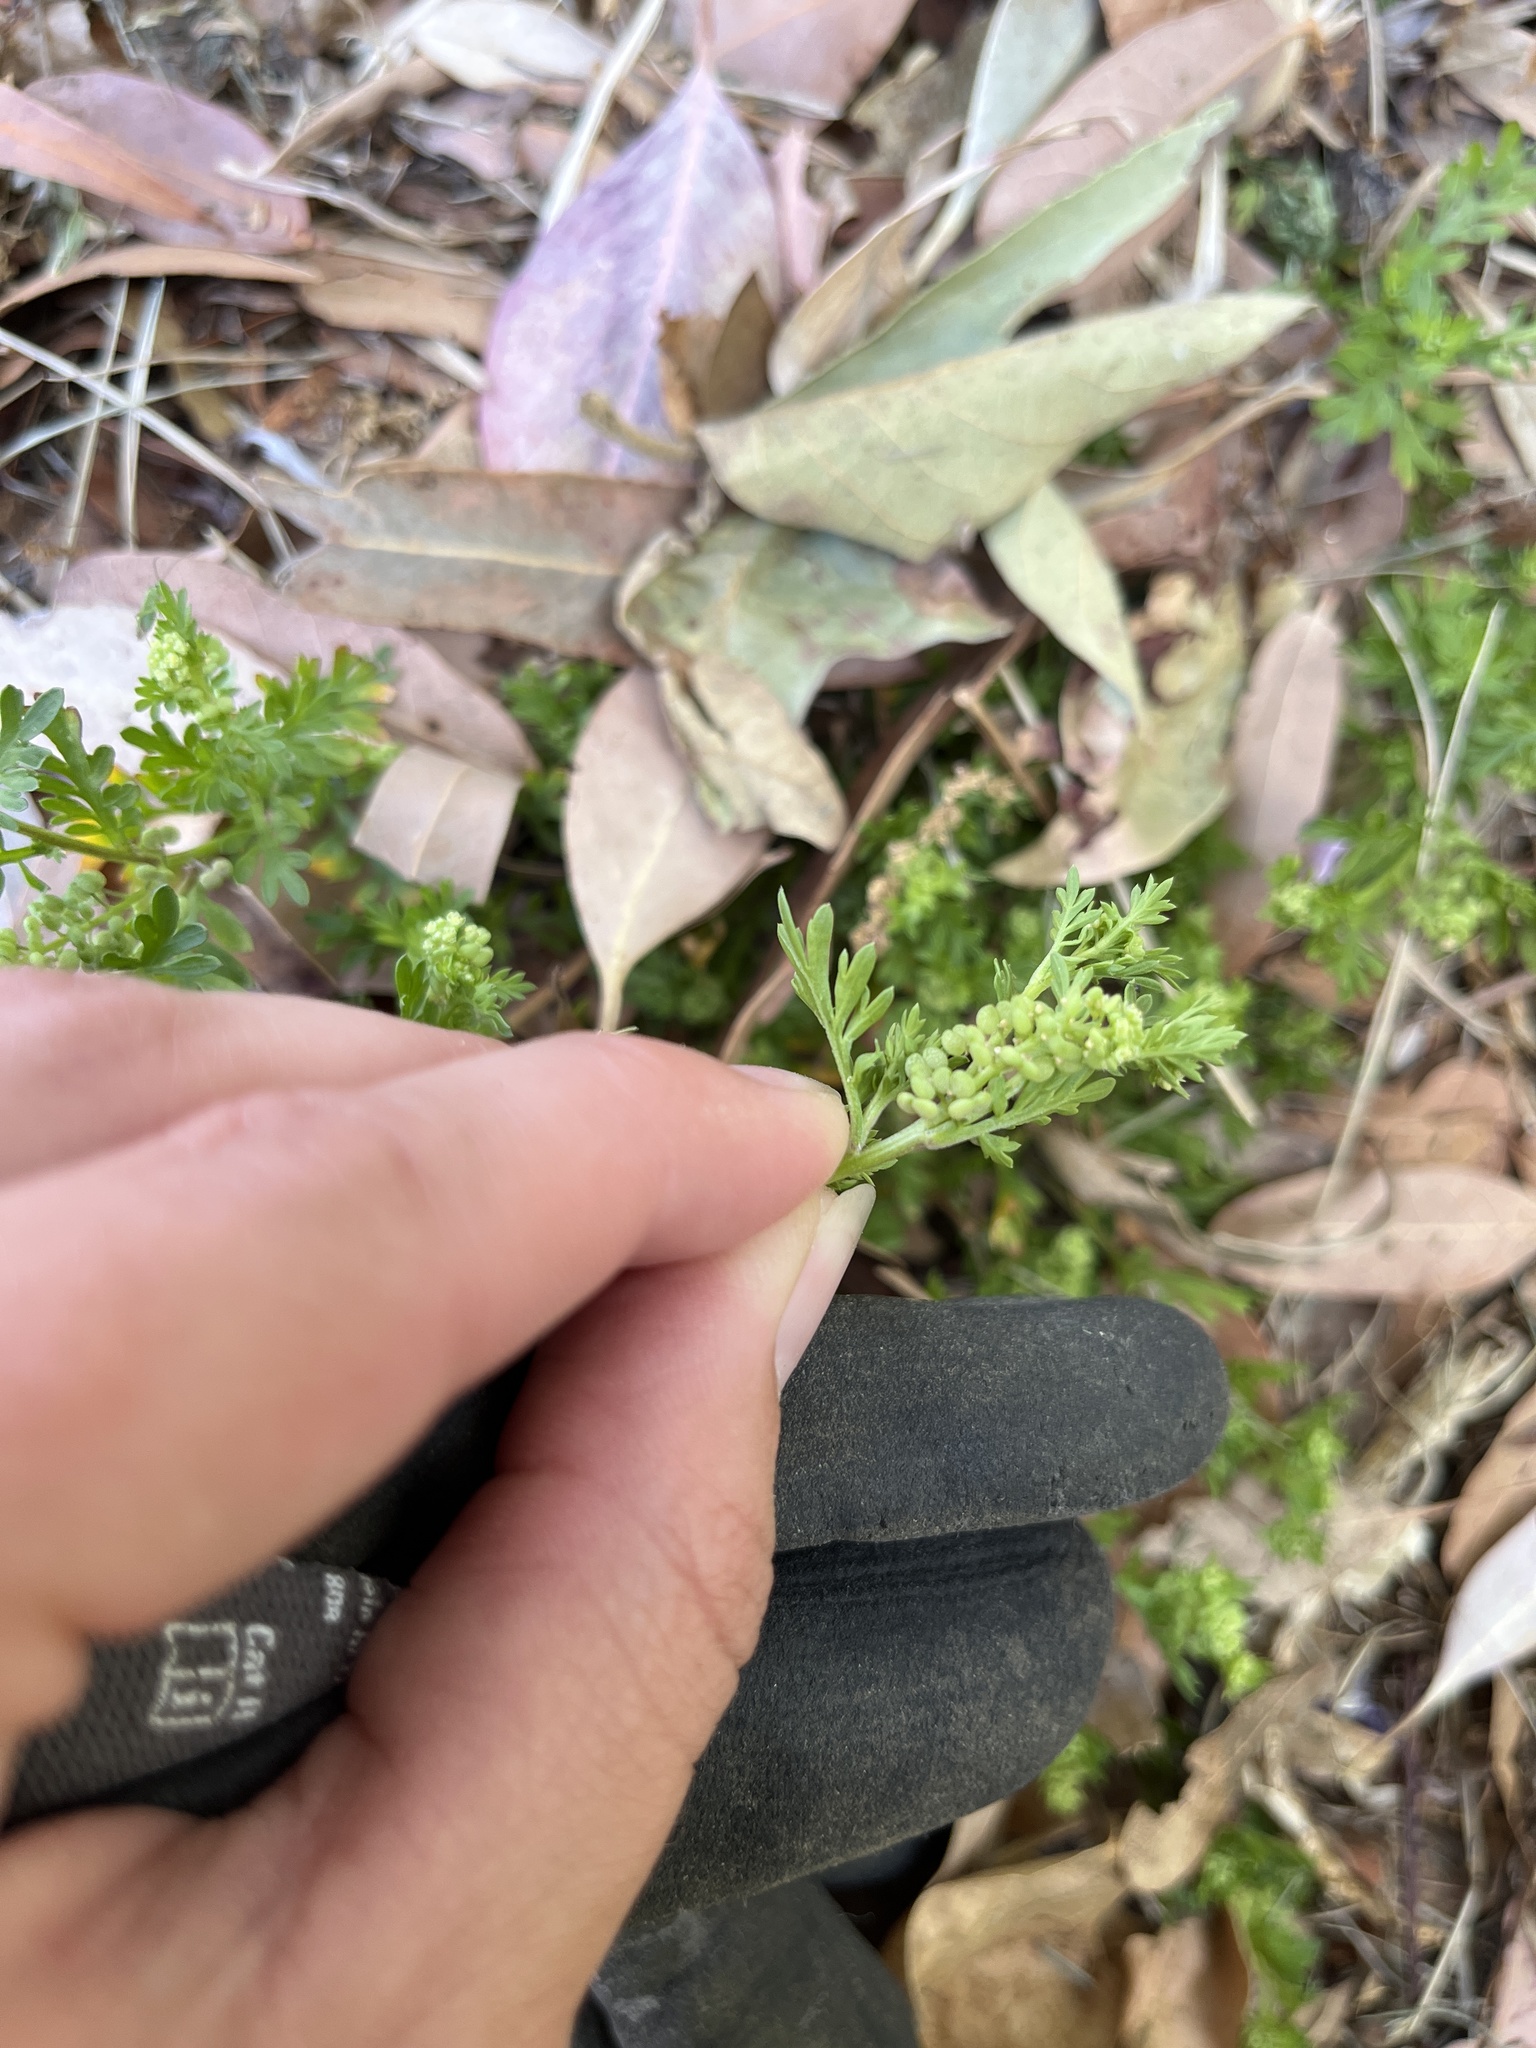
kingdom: Plantae
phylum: Tracheophyta
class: Magnoliopsida
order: Brassicales
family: Brassicaceae
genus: Lepidium
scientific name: Lepidium didymum
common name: Lesser swinecress
